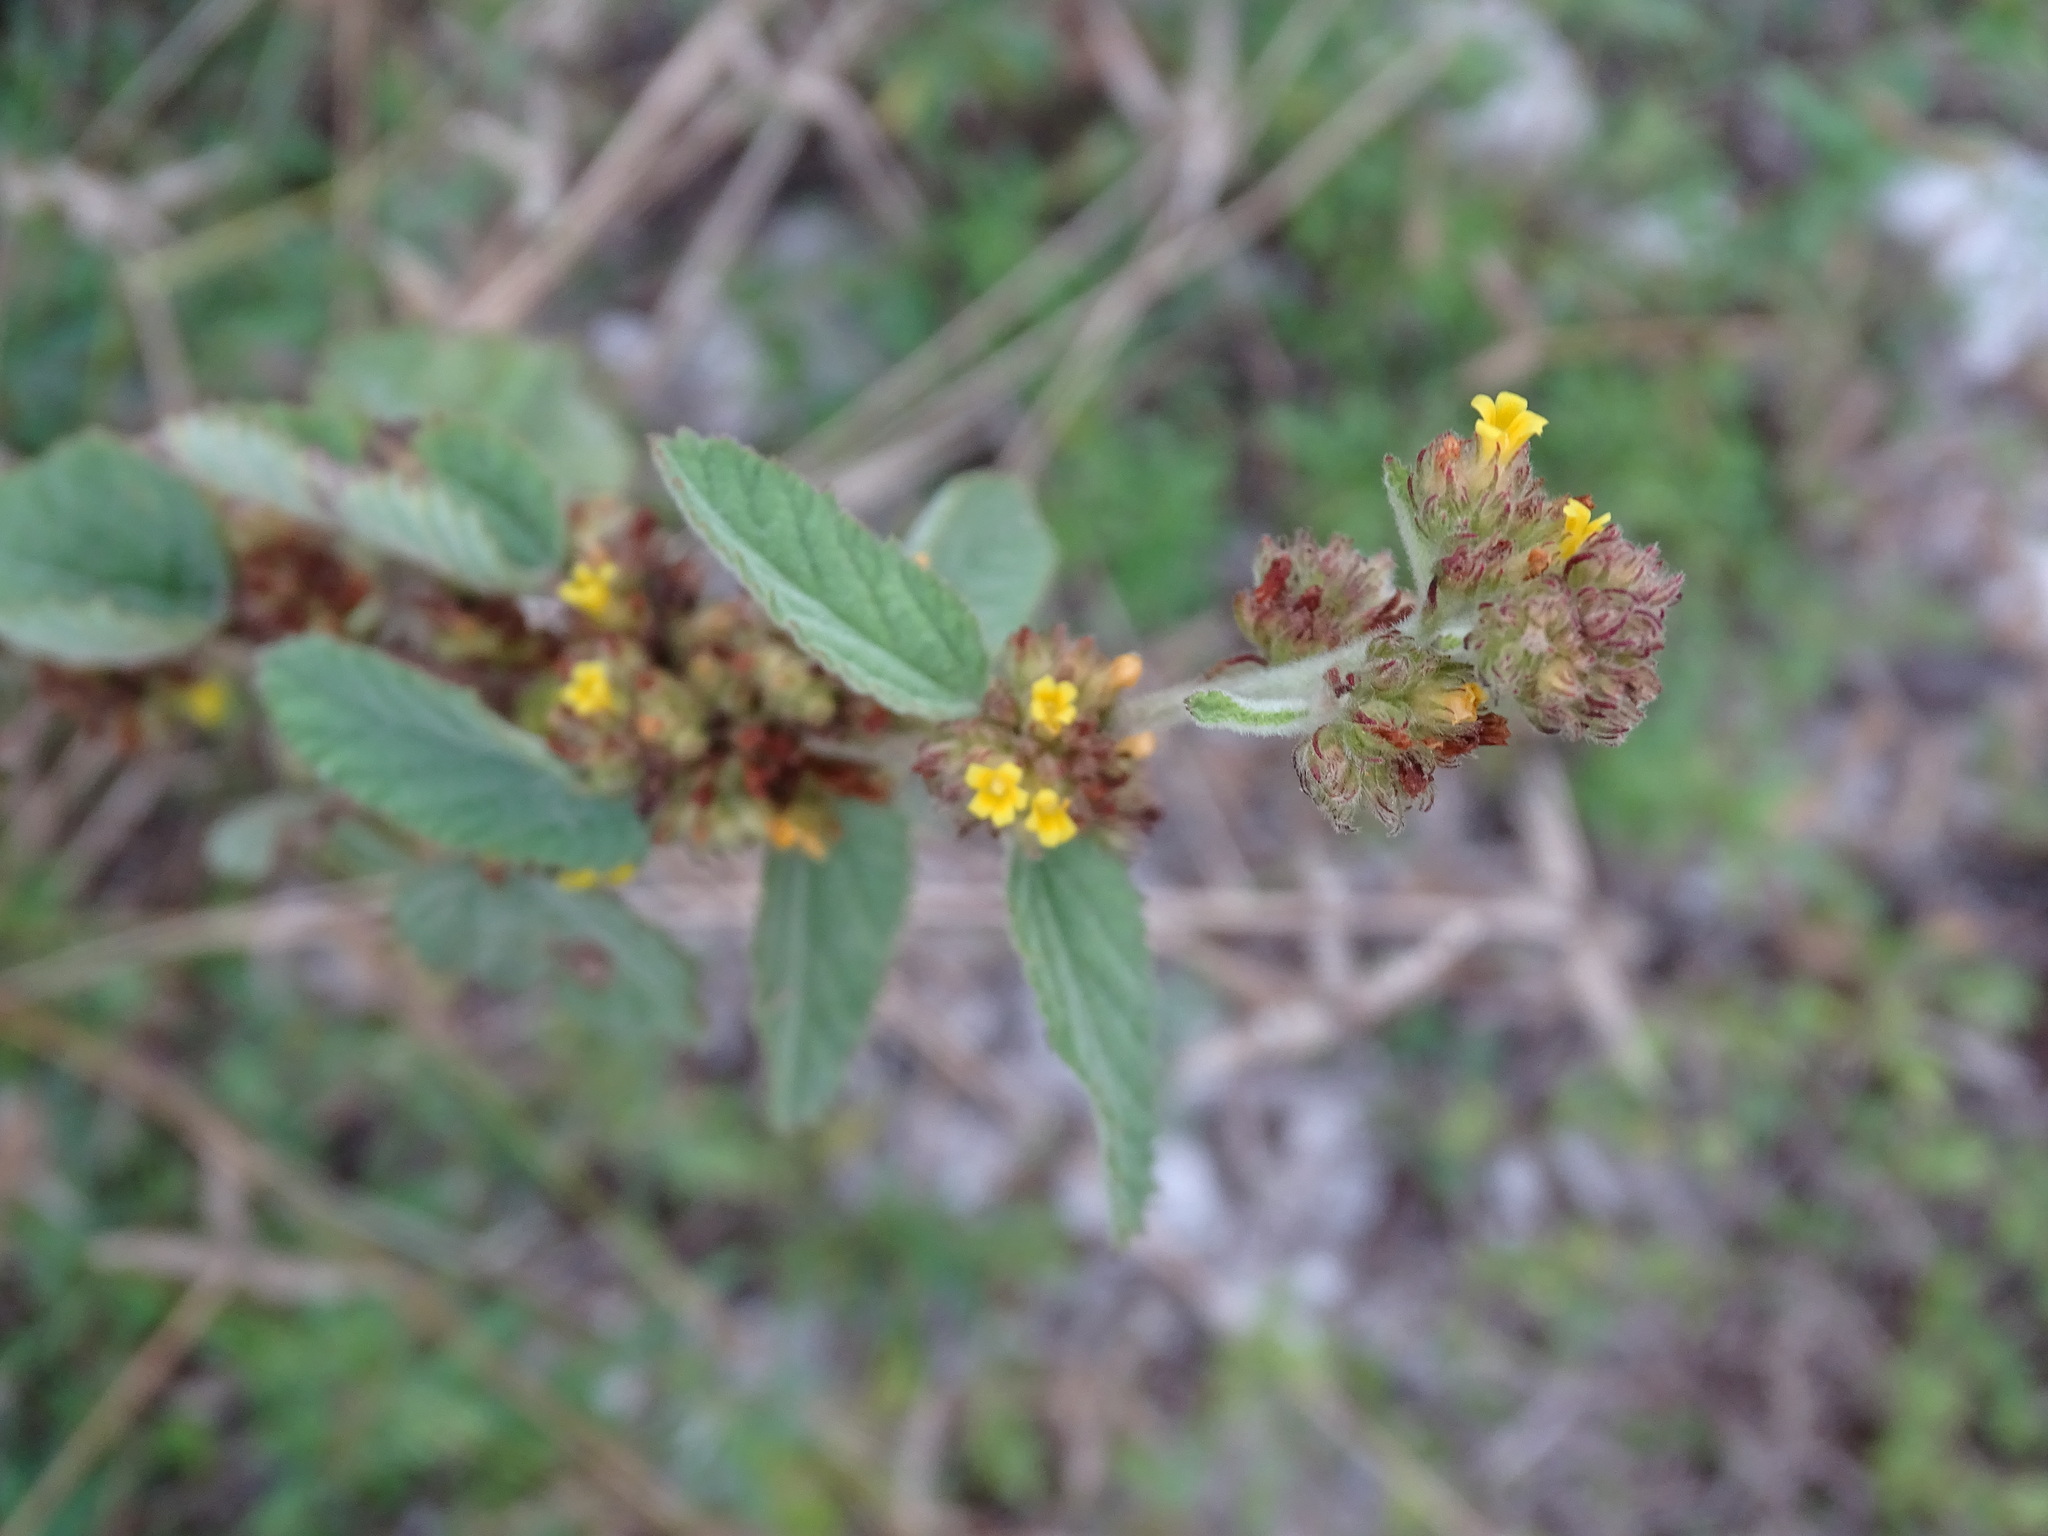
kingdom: Plantae
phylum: Tracheophyta
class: Magnoliopsida
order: Malvales
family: Malvaceae
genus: Waltheria
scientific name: Waltheria indica
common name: Leather-coat
